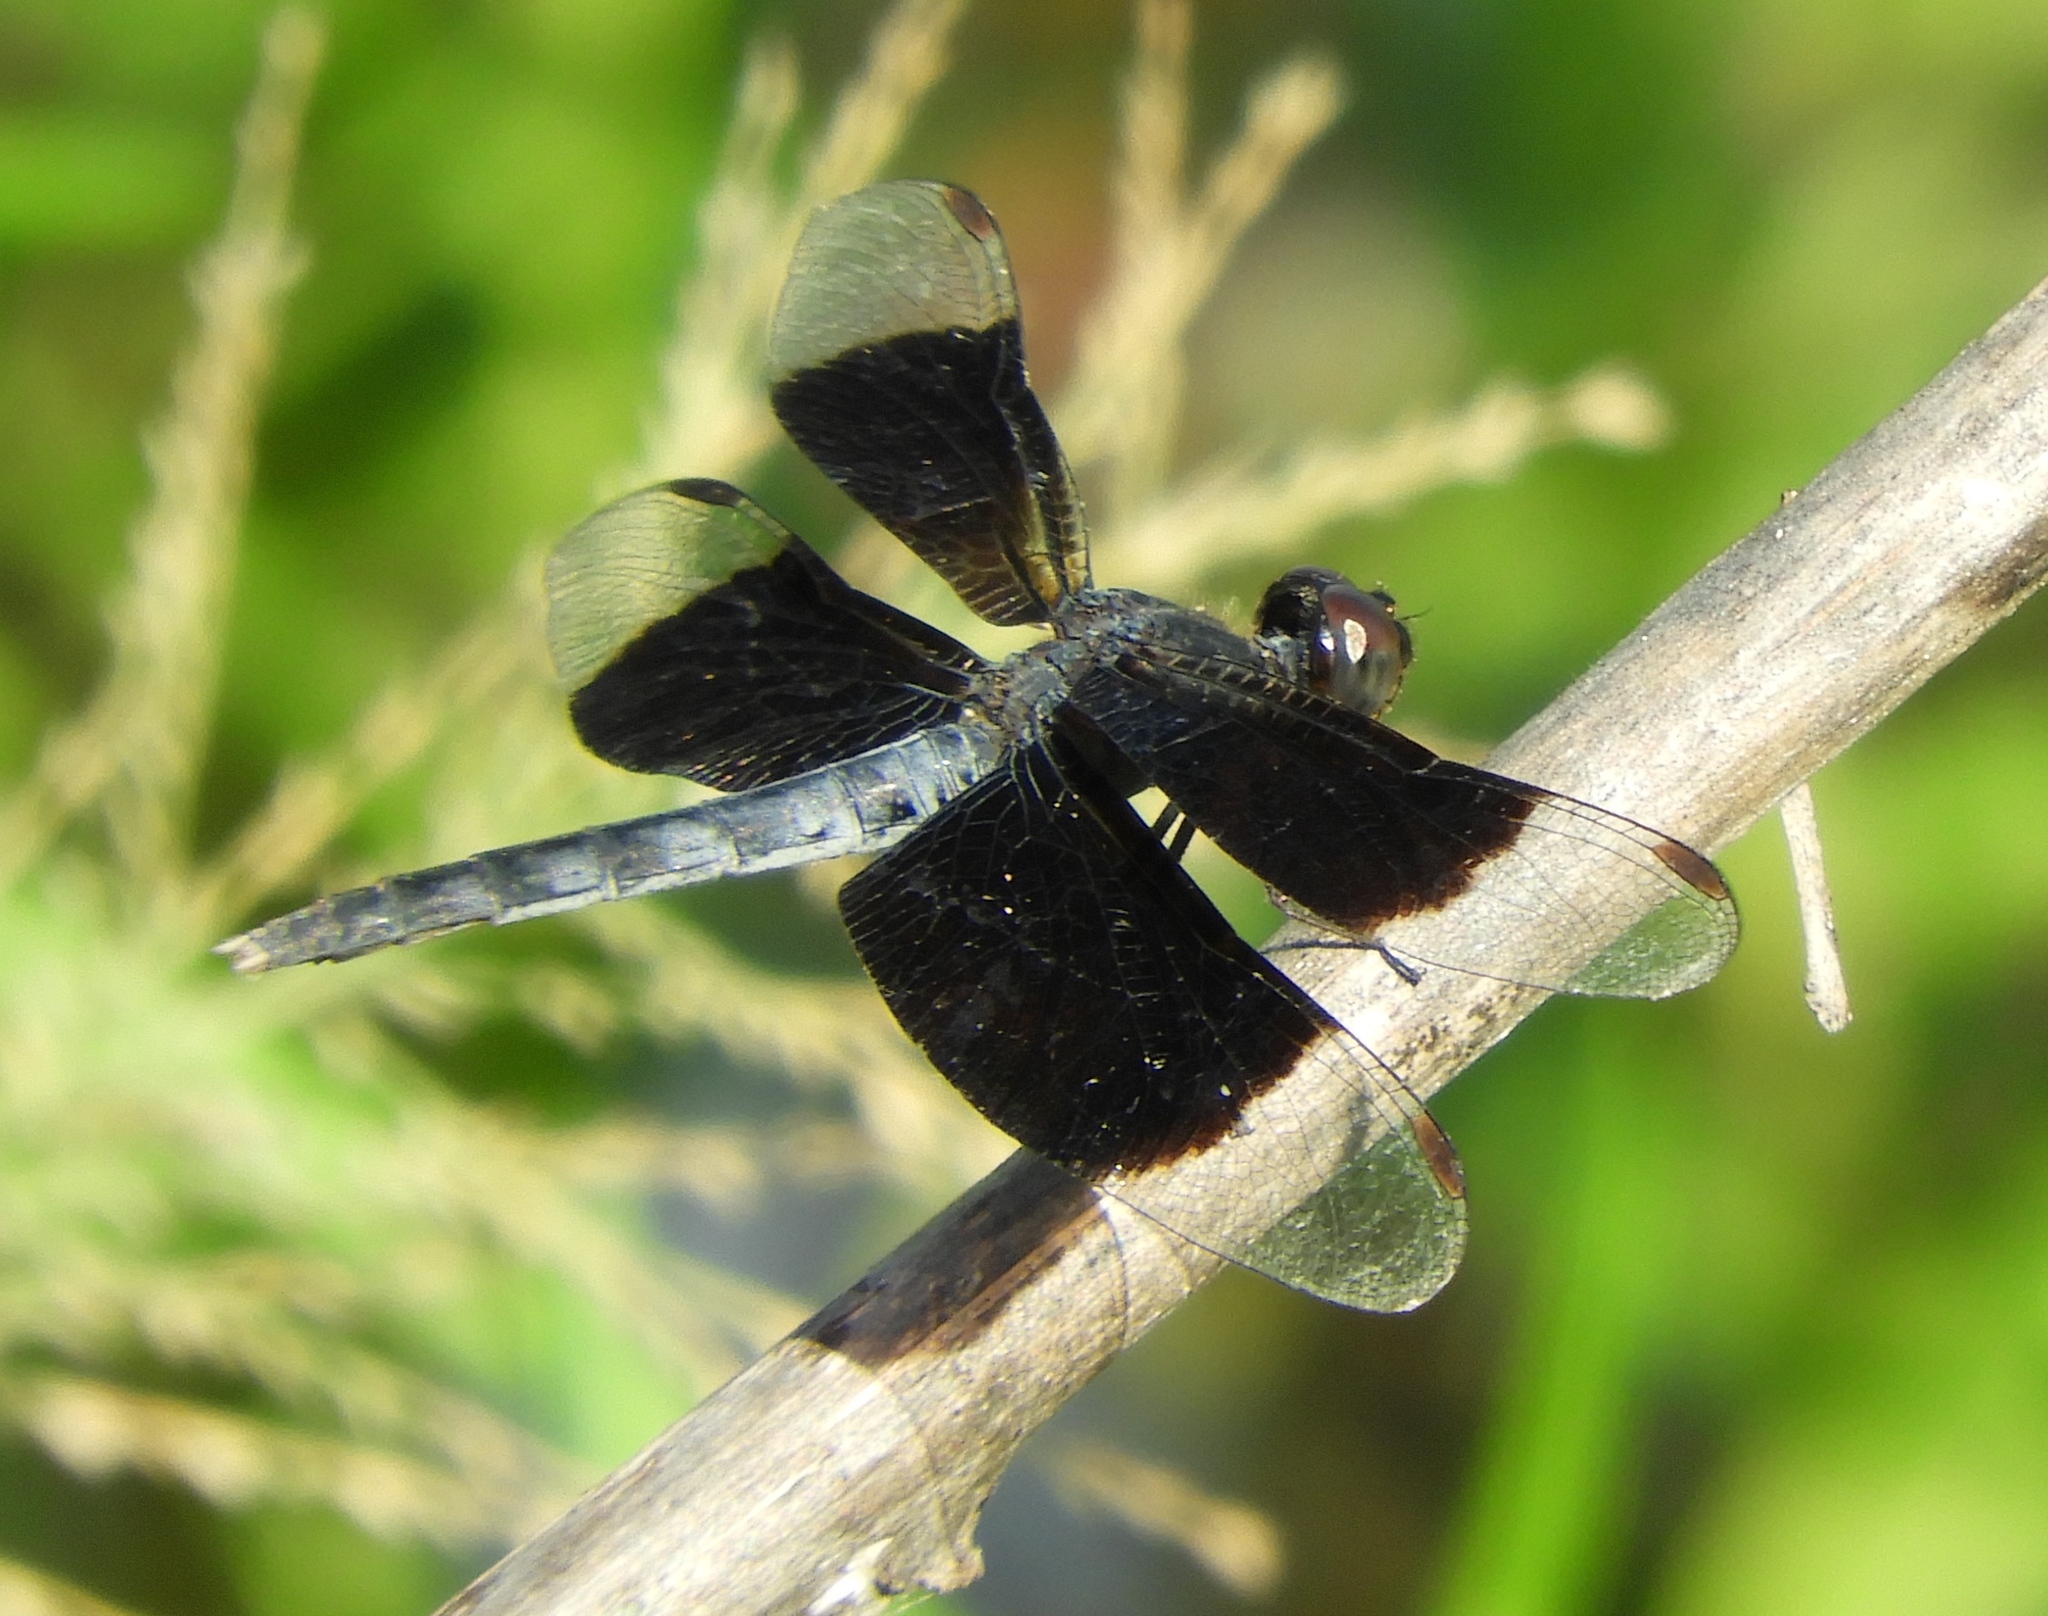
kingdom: Animalia
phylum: Arthropoda
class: Insecta
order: Odonata
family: Libellulidae
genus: Erythrodiplax
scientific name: Erythrodiplax funerea
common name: Black-winged dragonlet
